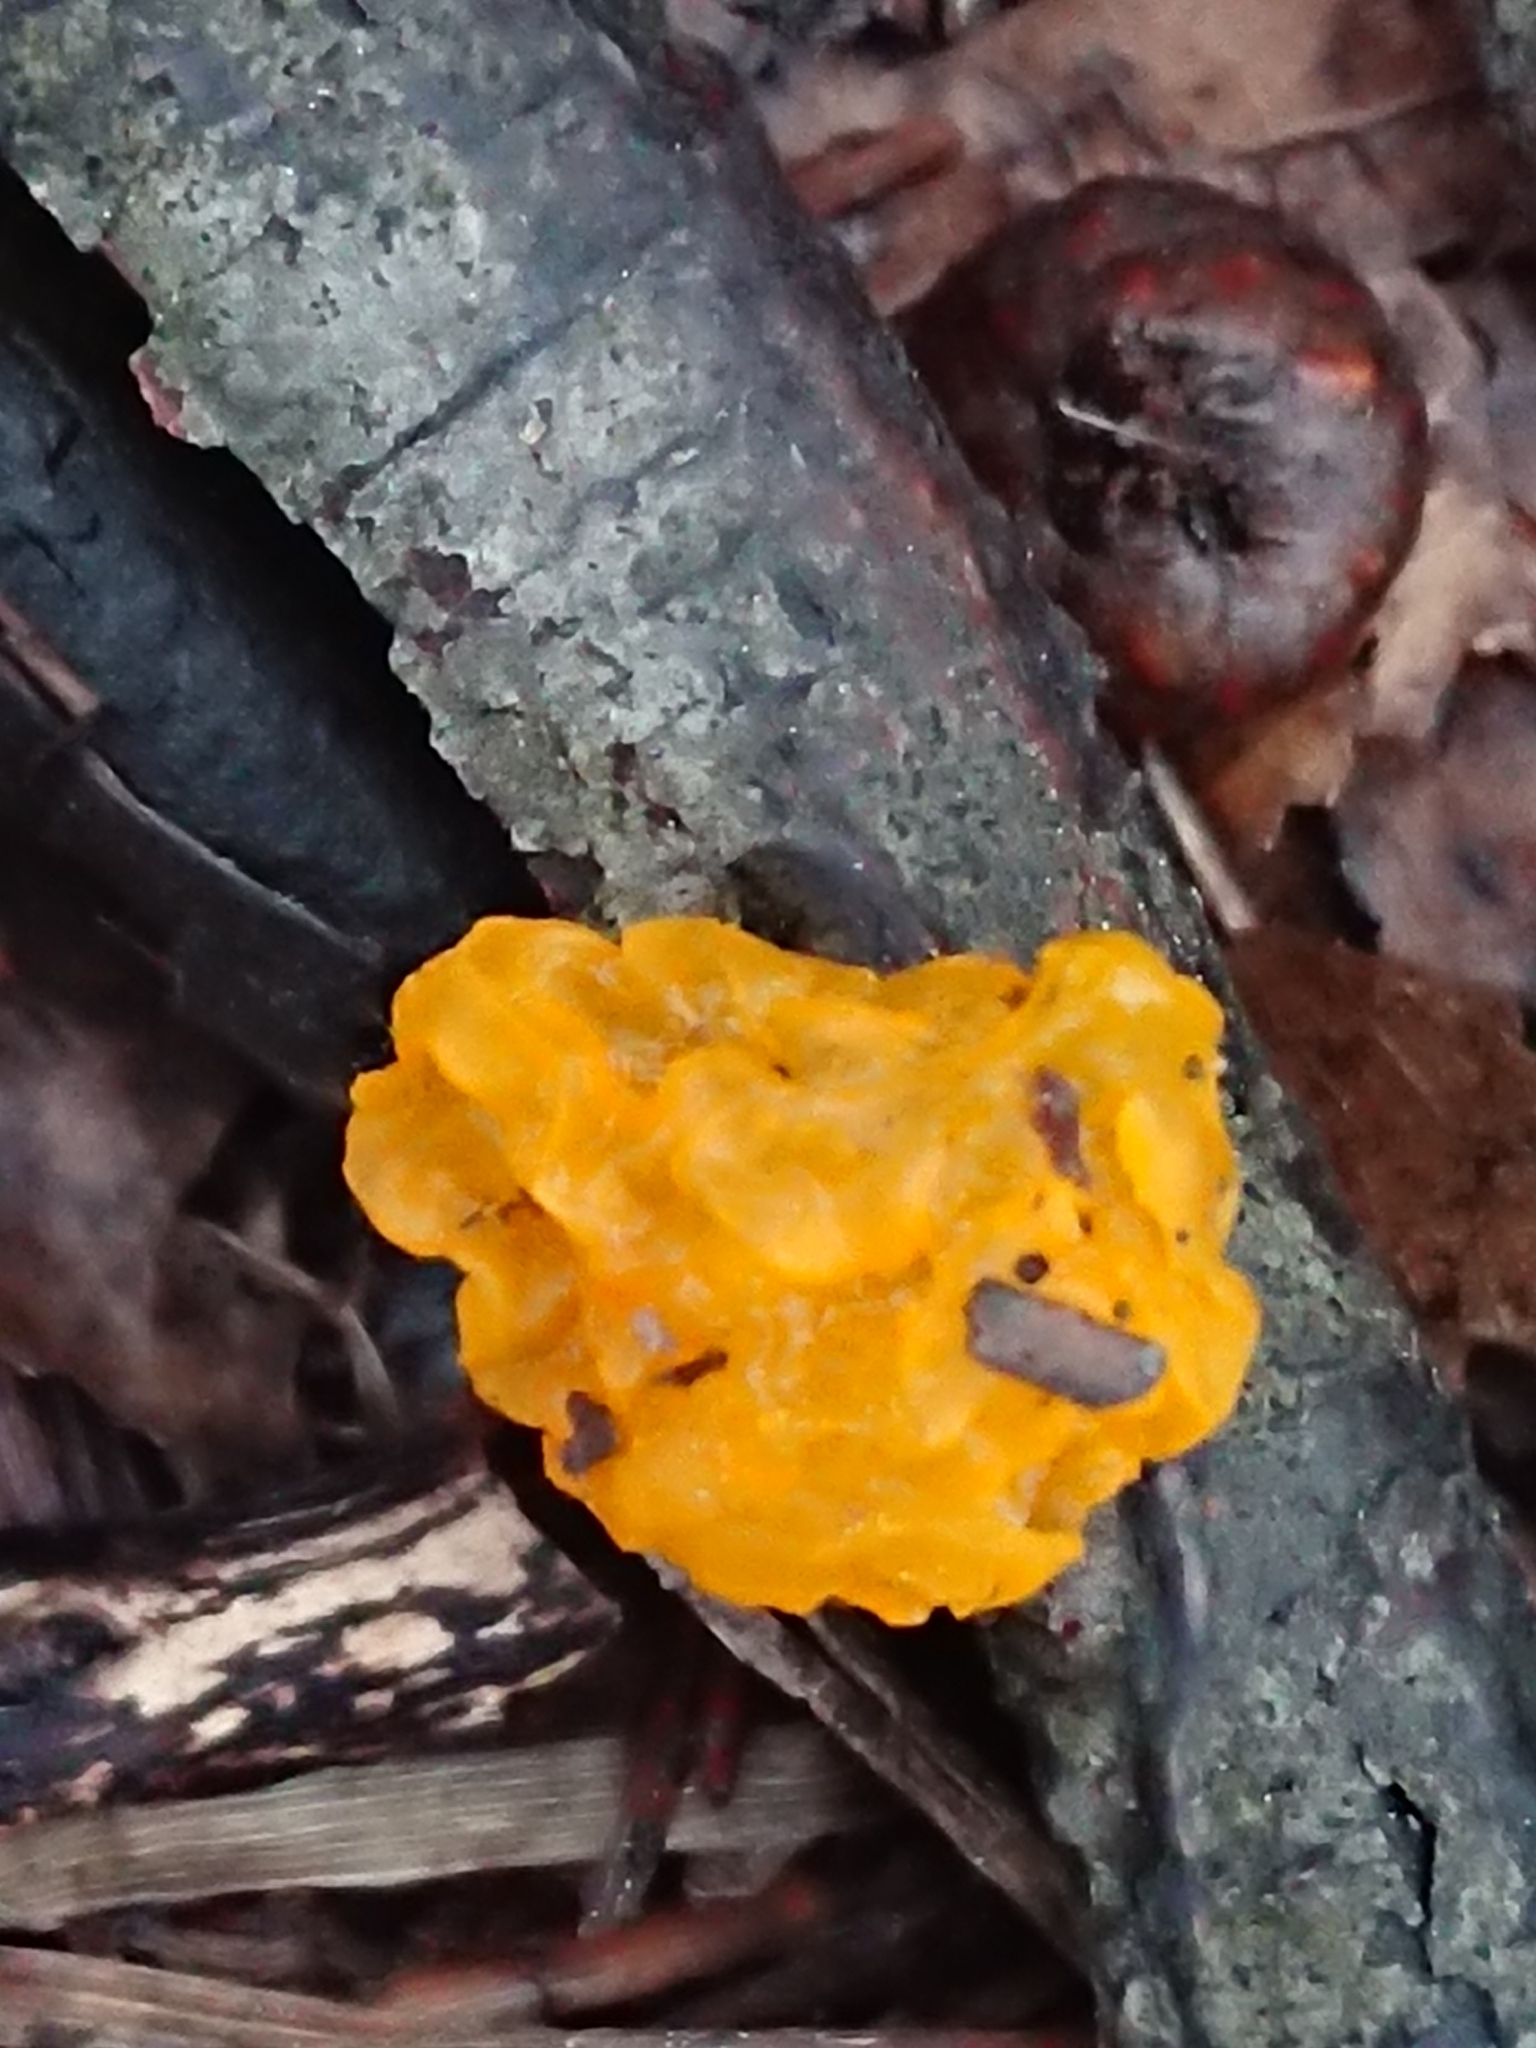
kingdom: Fungi
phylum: Basidiomycota
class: Tremellomycetes
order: Tremellales
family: Tremellaceae
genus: Tremella
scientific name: Tremella mesenterica
